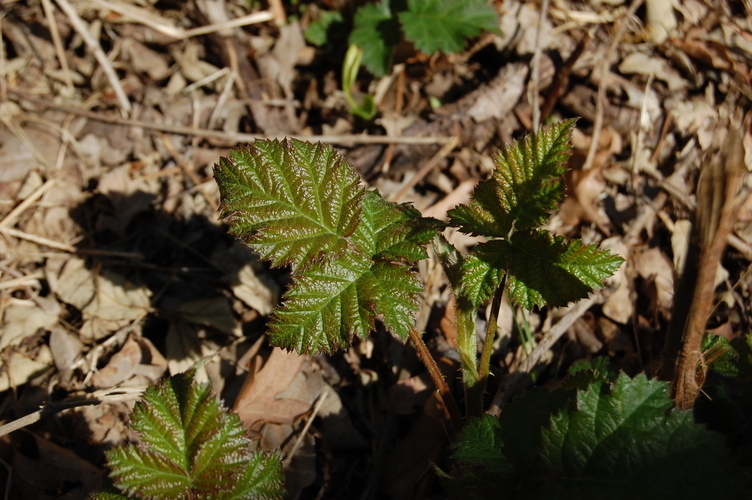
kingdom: Plantae
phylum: Tracheophyta
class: Magnoliopsida
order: Rosales
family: Rosaceae
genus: Rubus
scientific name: Rubus ulmifolius
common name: Elmleaf blackberry
